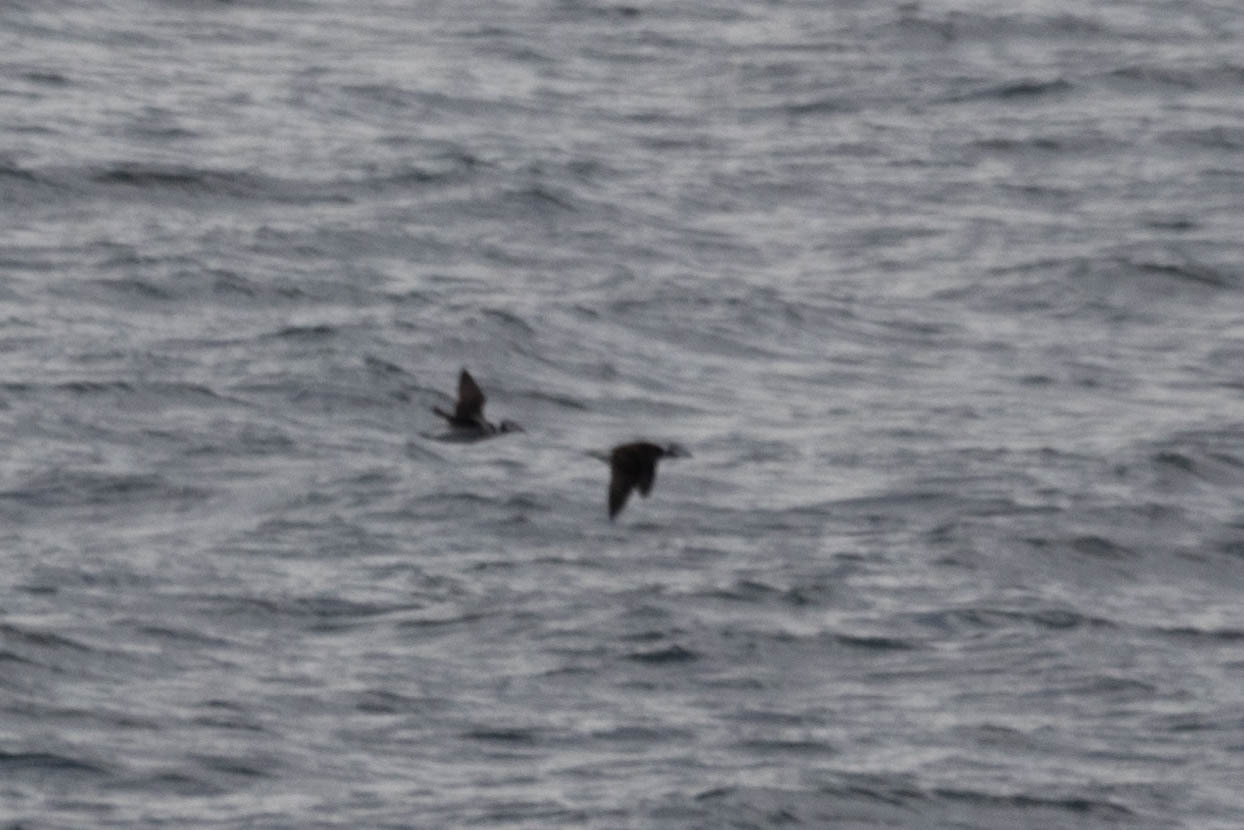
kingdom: Animalia
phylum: Chordata
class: Aves
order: Anseriformes
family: Anatidae
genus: Clangula
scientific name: Clangula hyemalis
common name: Long-tailed duck
